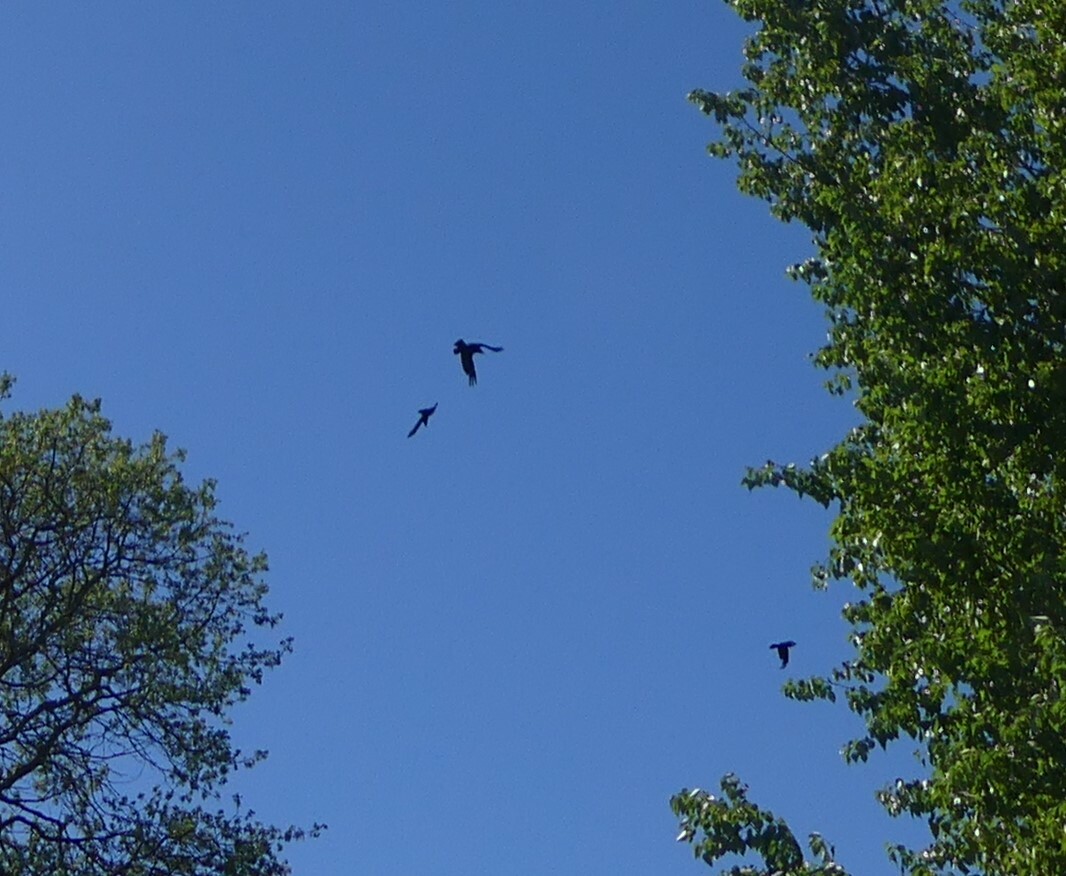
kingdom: Animalia
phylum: Chordata
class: Aves
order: Passeriformes
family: Corvidae
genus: Corvus
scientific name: Corvus corax
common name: Common raven
